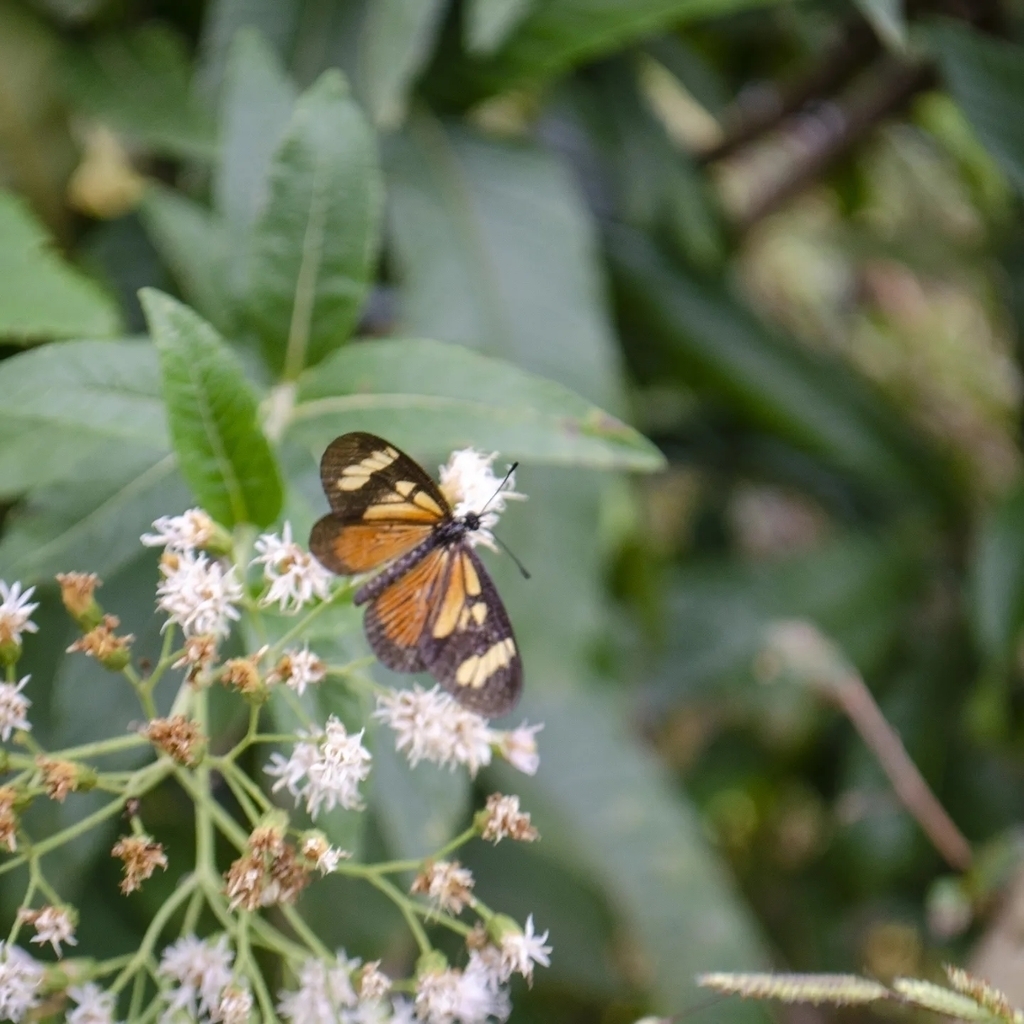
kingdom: Plantae
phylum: Tracheophyta
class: Magnoliopsida
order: Asterales
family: Asteraceae
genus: Vernonanthura
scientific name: Vernonanthura tweedieana
